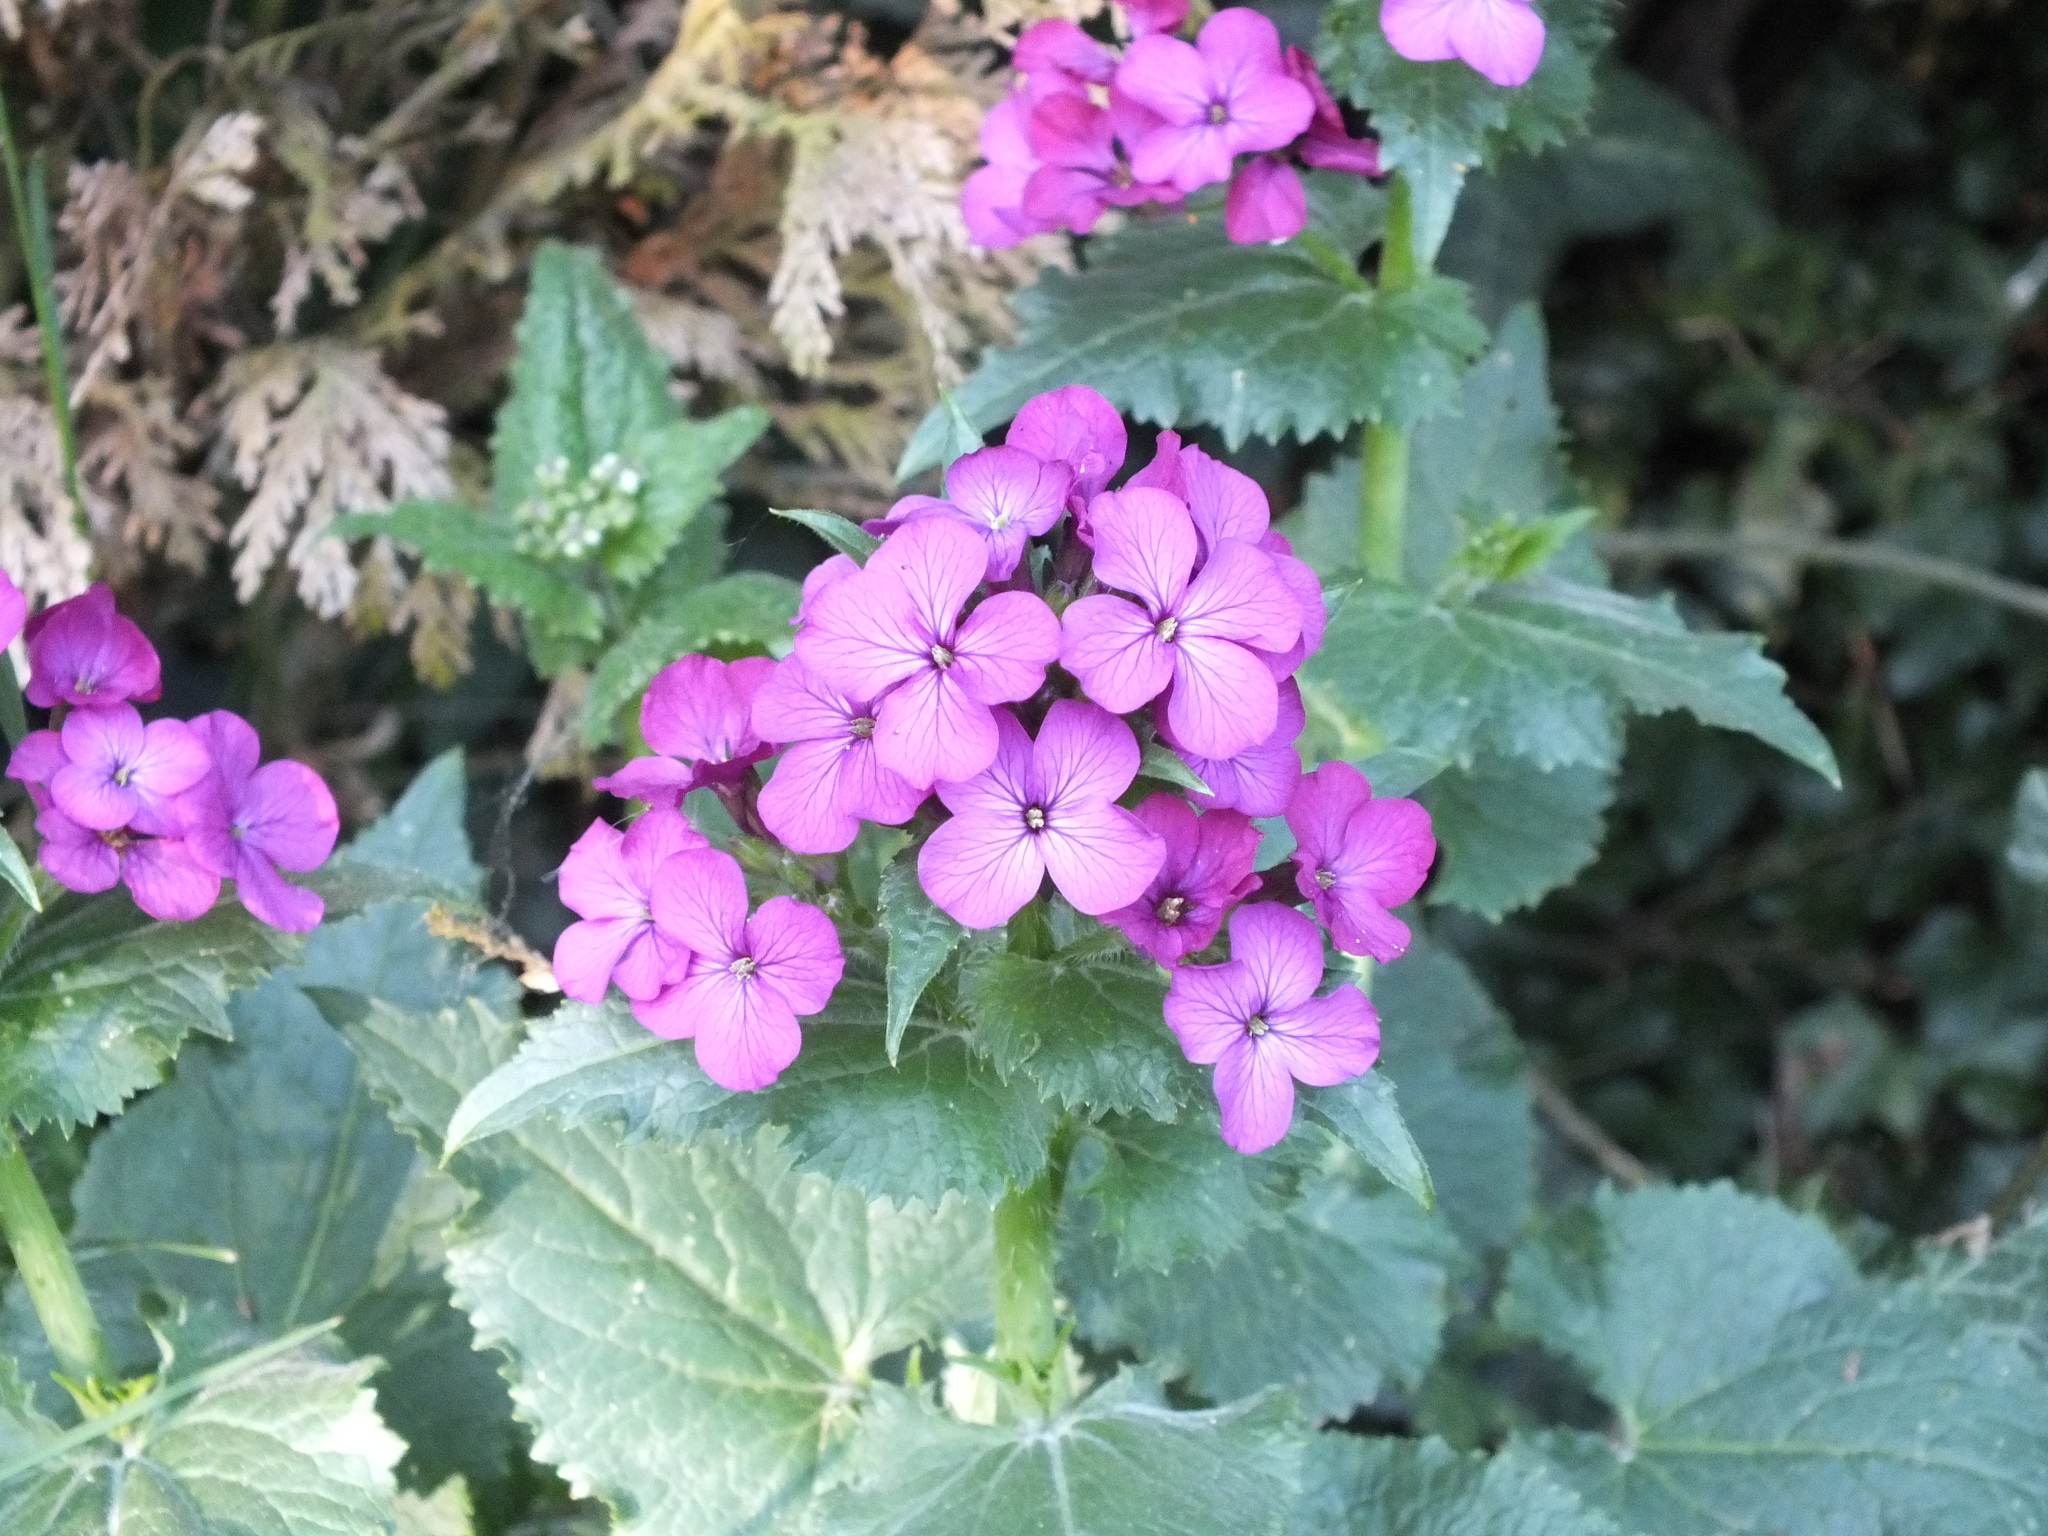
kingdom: Plantae
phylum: Tracheophyta
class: Magnoliopsida
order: Brassicales
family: Brassicaceae
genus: Lunaria
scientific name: Lunaria annua
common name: Honesty
